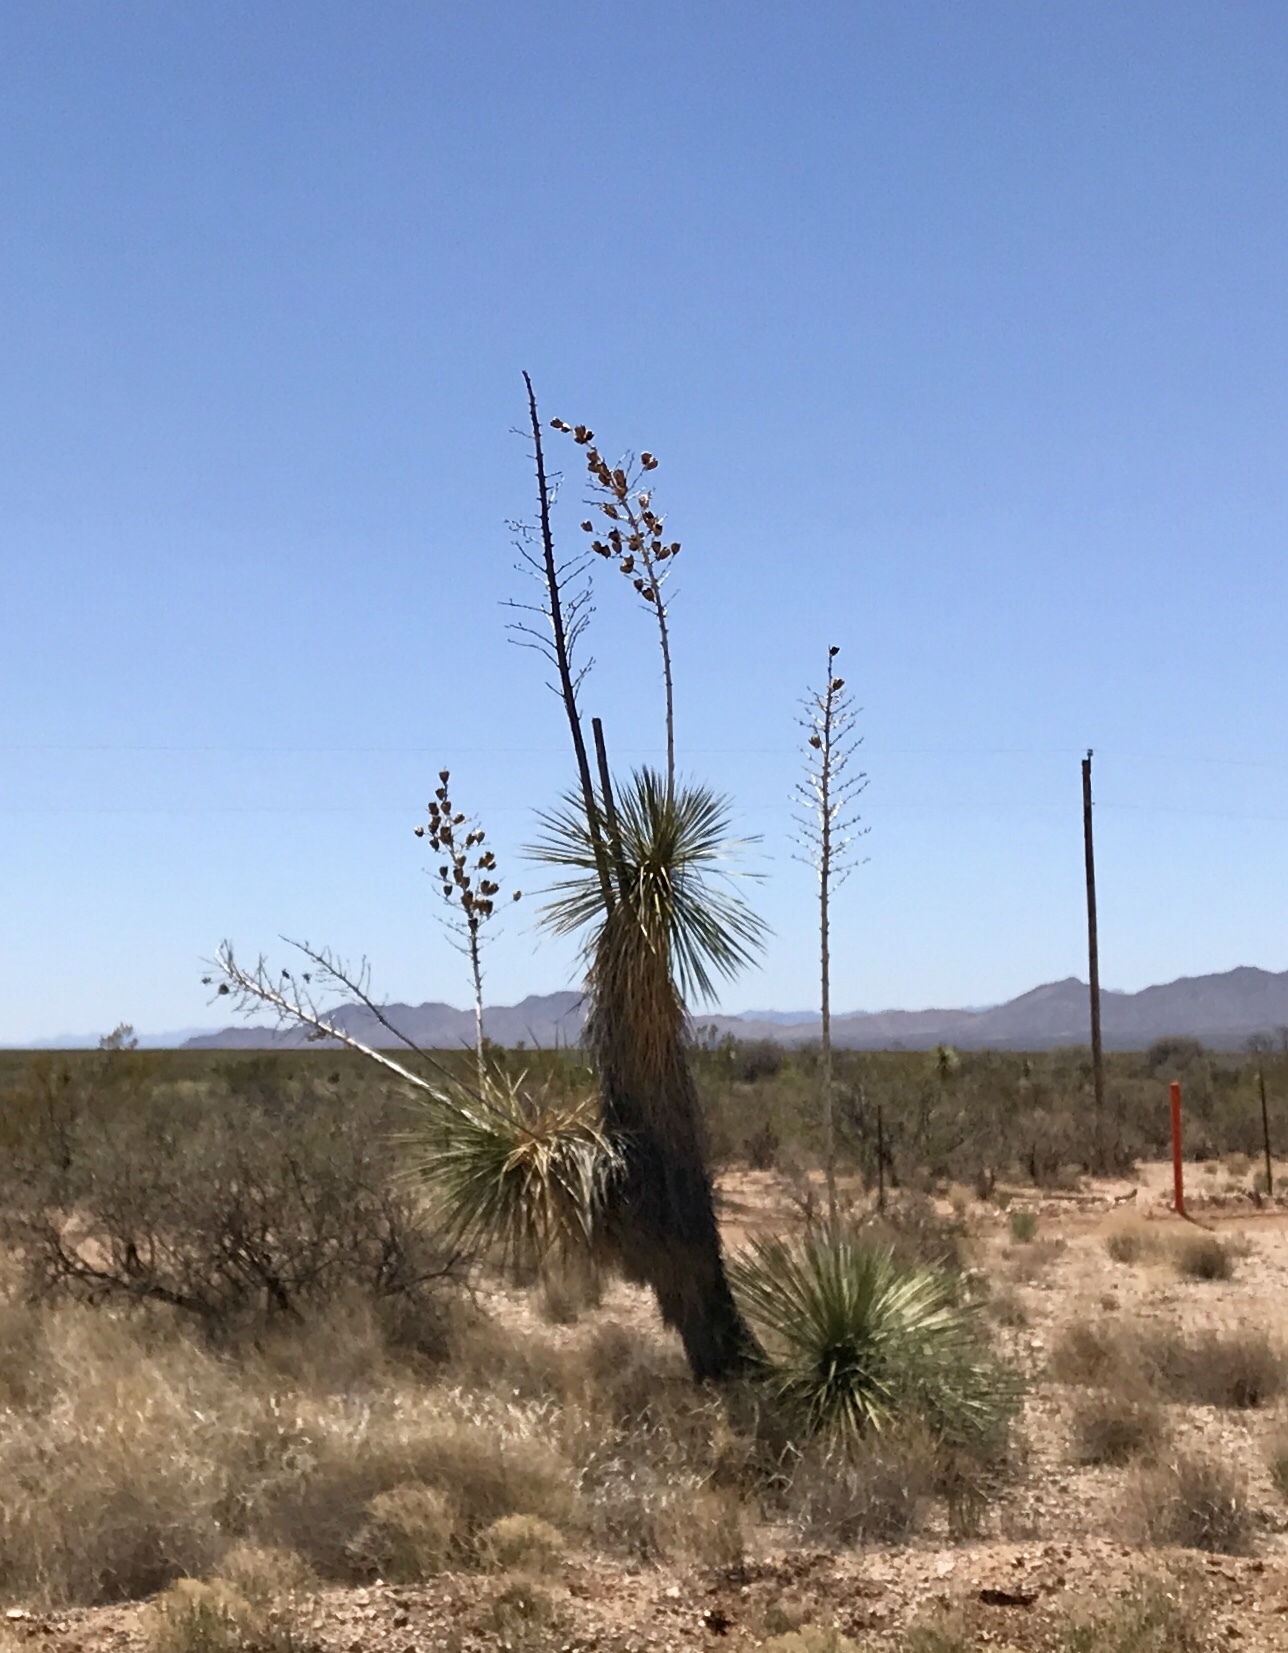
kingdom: Plantae
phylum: Tracheophyta
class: Liliopsida
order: Asparagales
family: Asparagaceae
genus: Yucca
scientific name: Yucca elata
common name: Palmella
